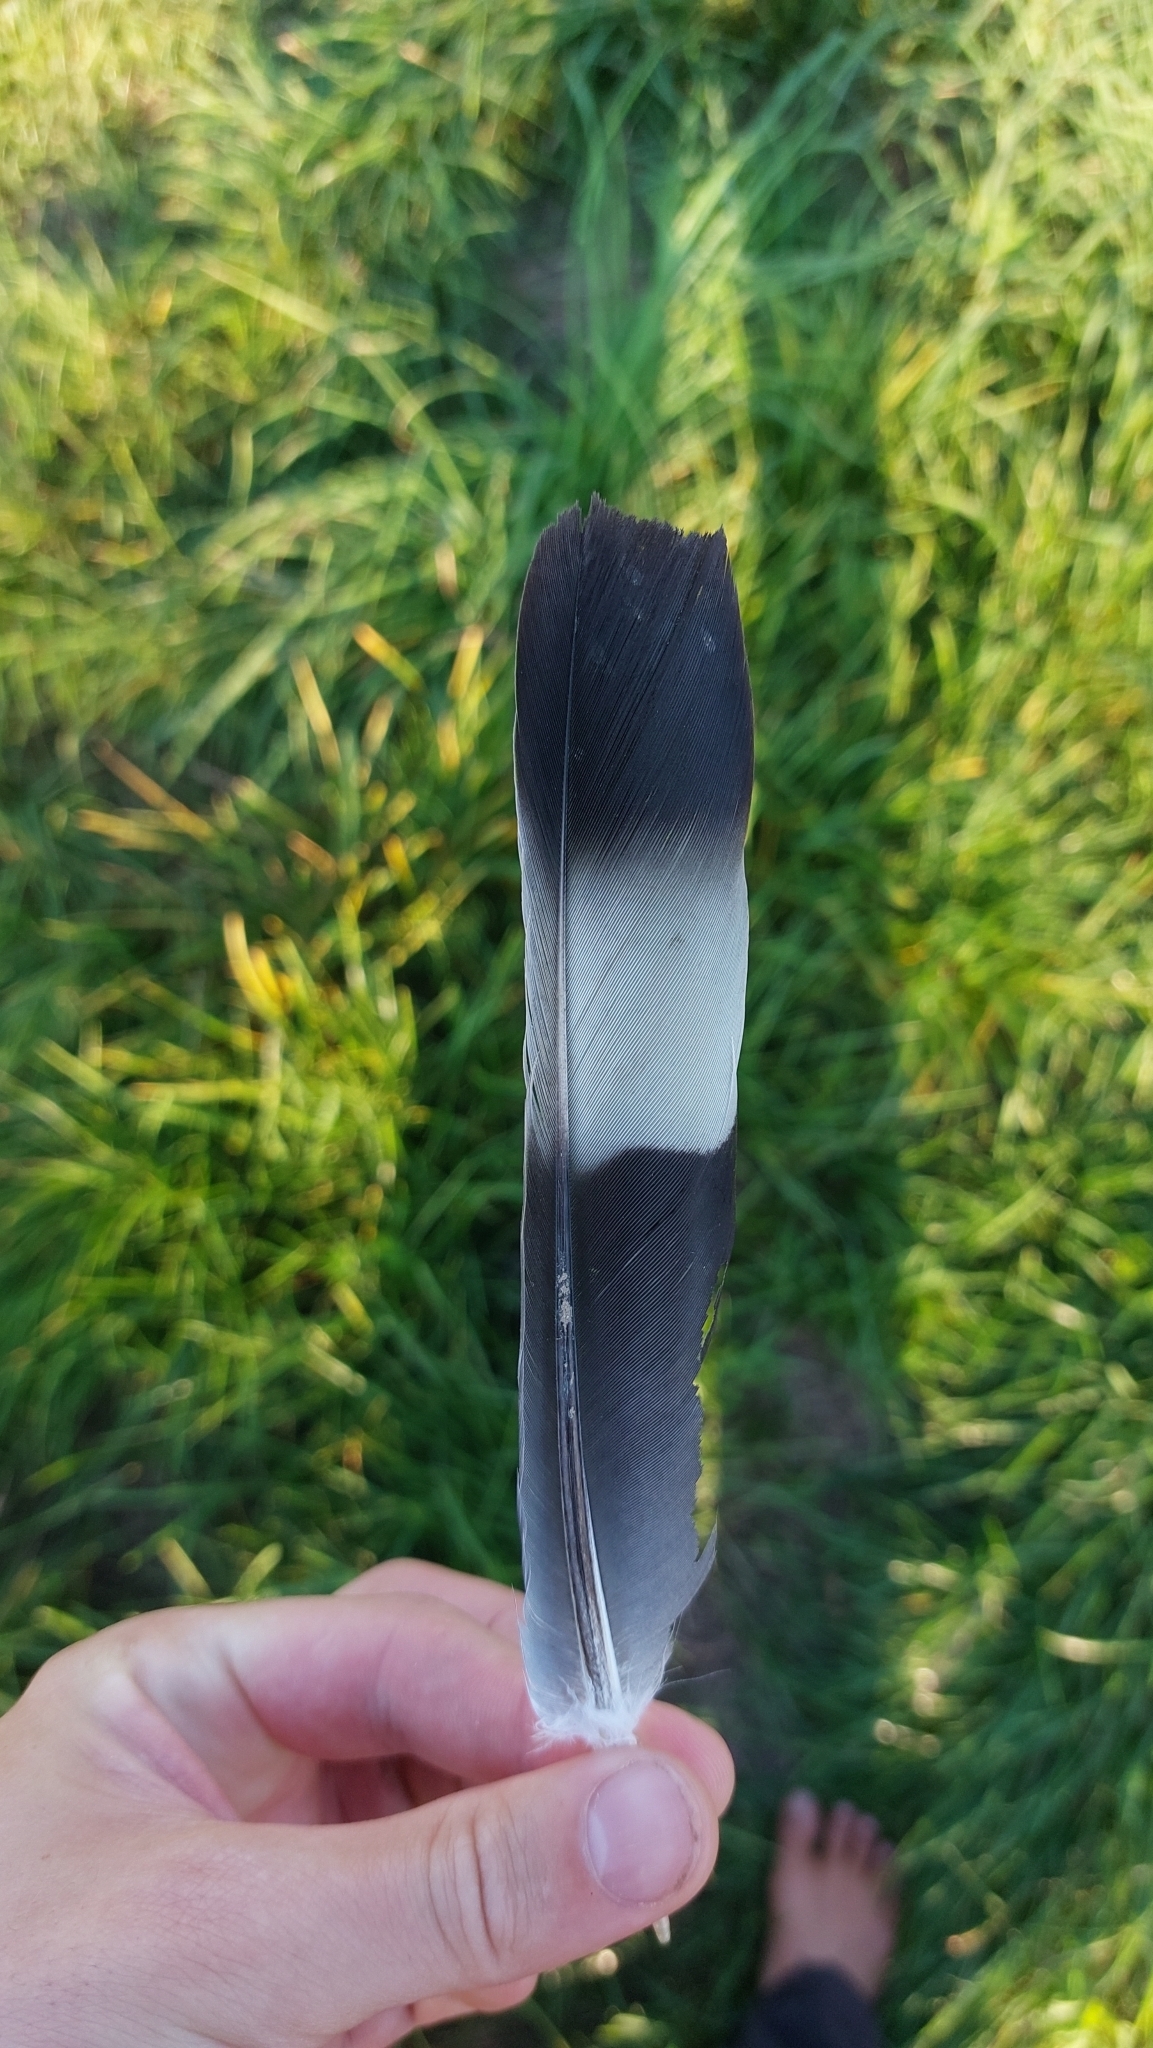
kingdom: Animalia
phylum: Chordata
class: Aves
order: Columbiformes
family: Columbidae
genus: Columba
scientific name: Columba palumbus
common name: Common wood pigeon
